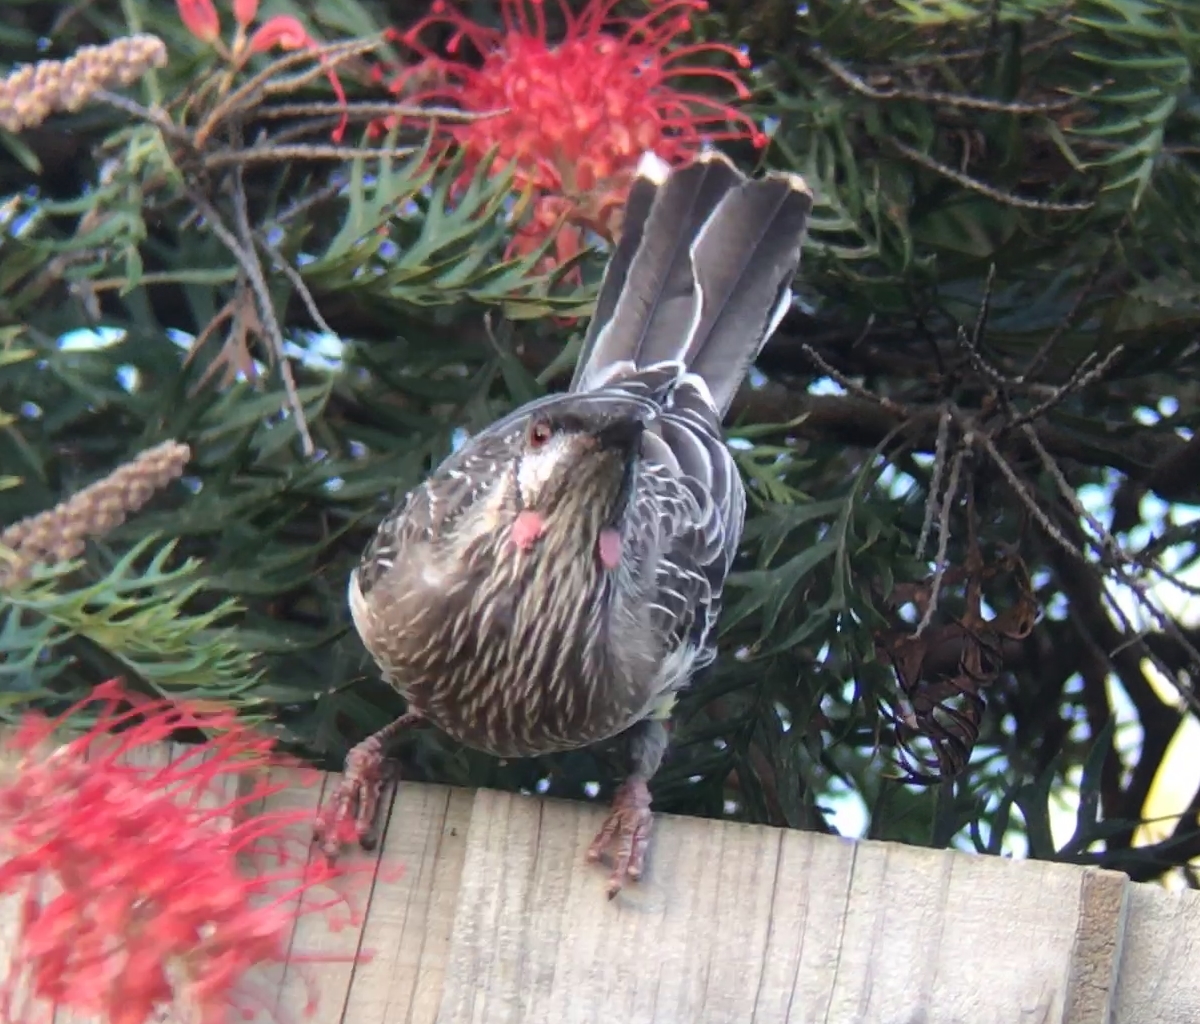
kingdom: Animalia
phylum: Chordata
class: Aves
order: Passeriformes
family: Meliphagidae
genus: Anthochaera
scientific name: Anthochaera carunculata
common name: Red wattlebird
